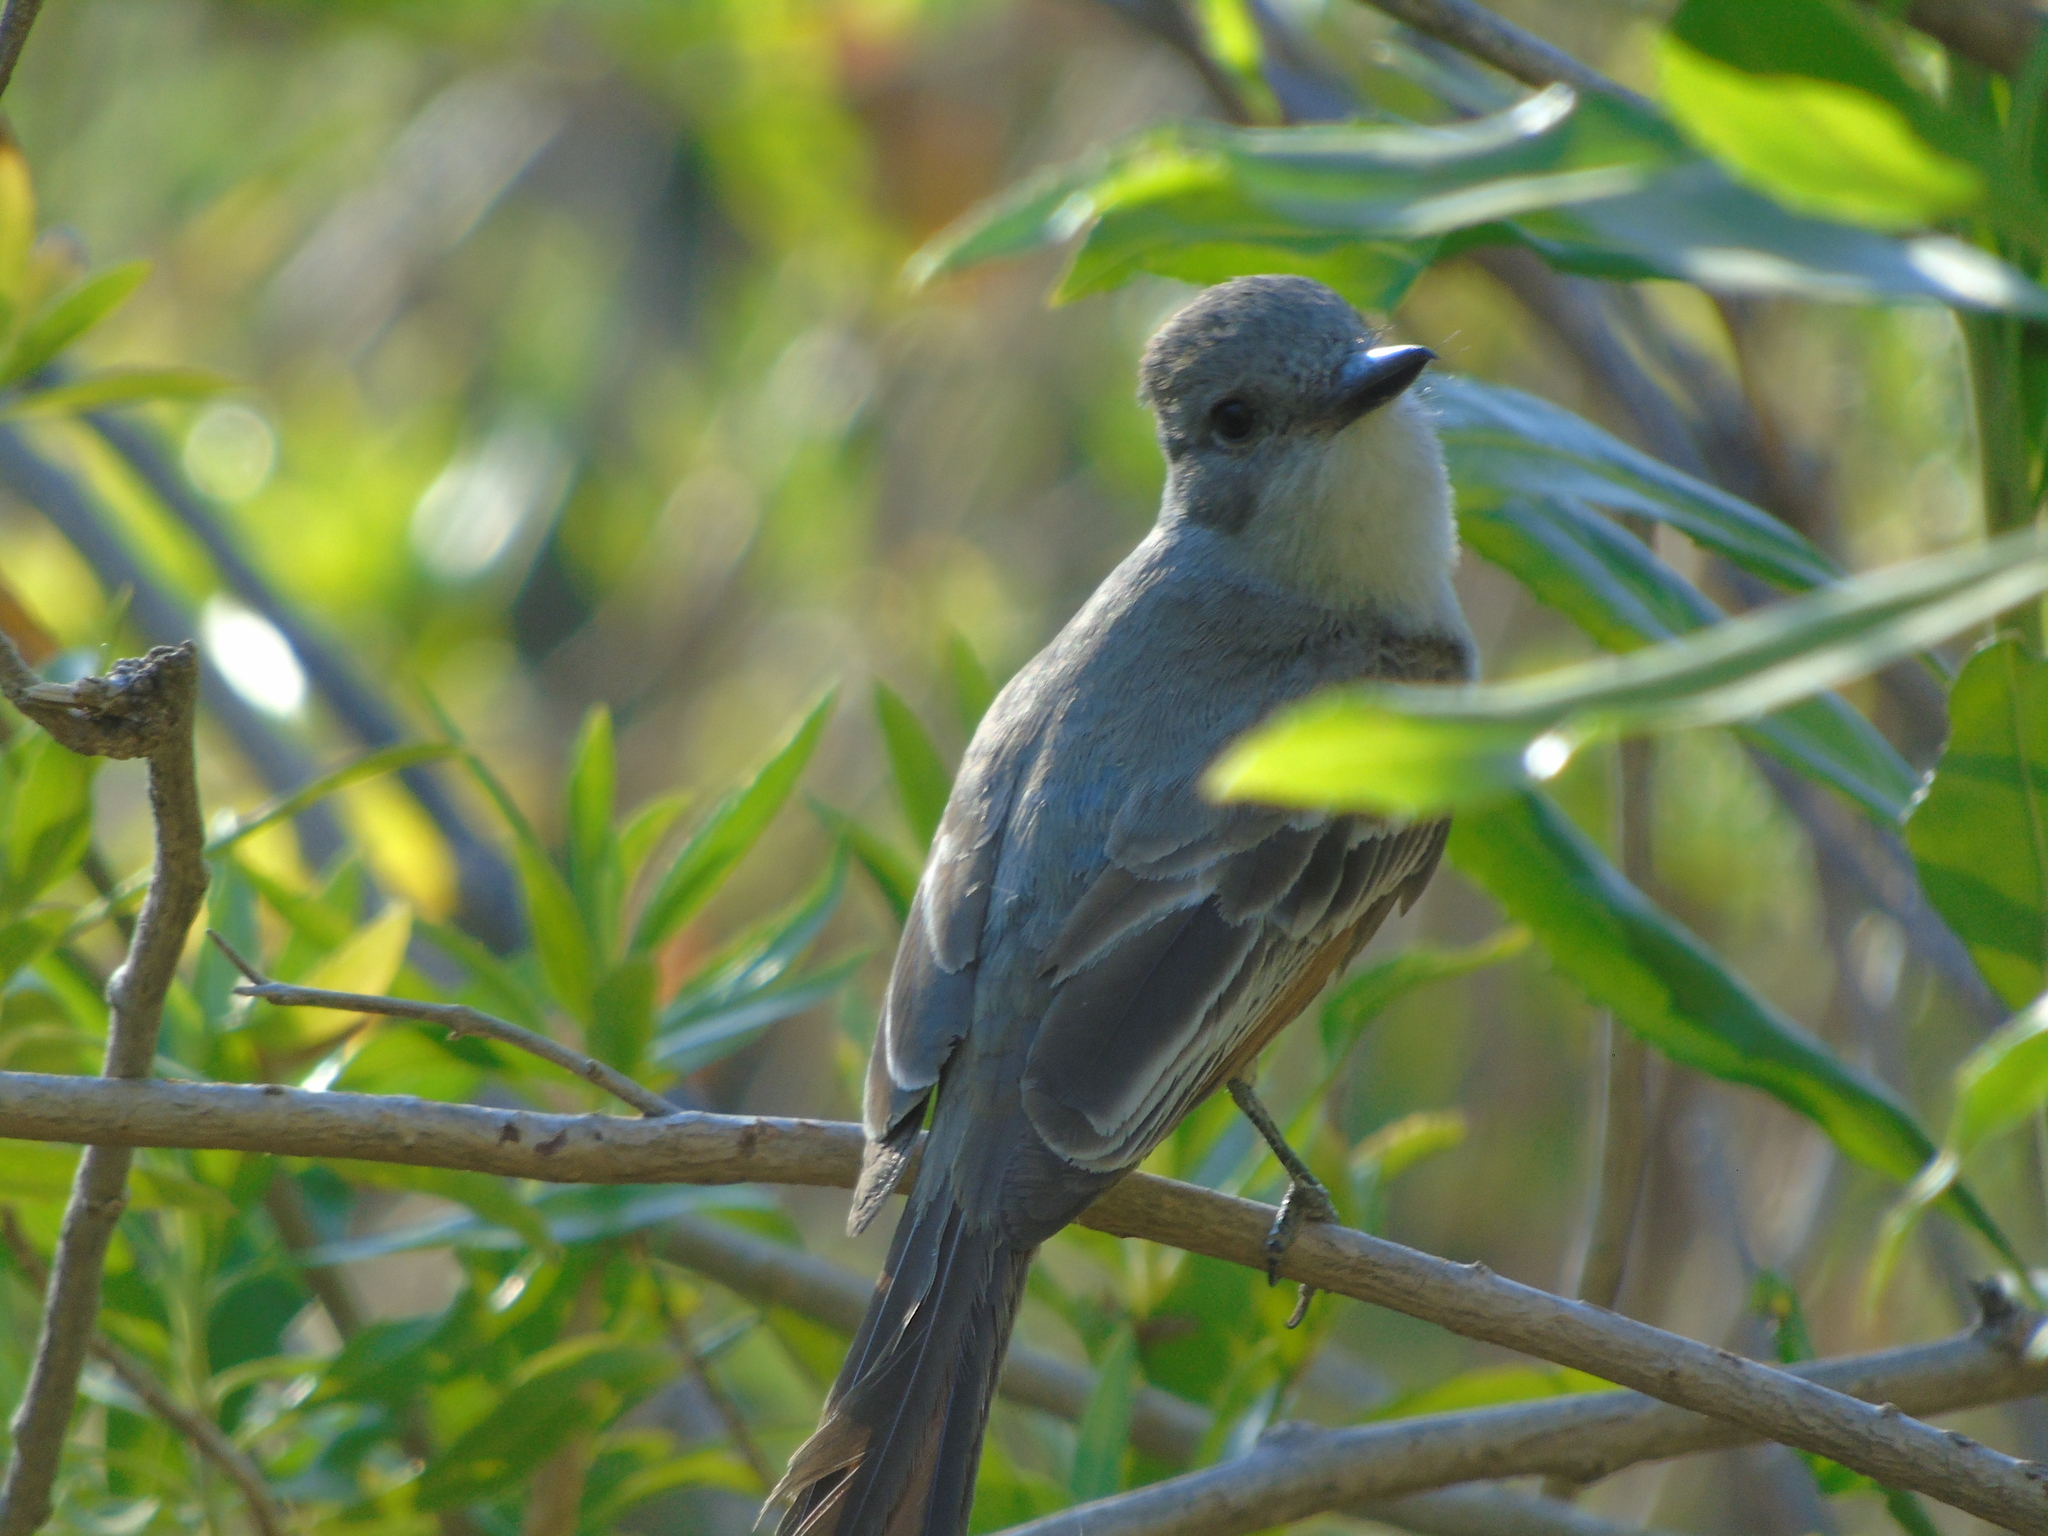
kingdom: Animalia
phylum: Chordata
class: Aves
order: Passeriformes
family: Tyrannidae
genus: Myiarchus
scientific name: Myiarchus cinerascens
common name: Ash-throated flycatcher
